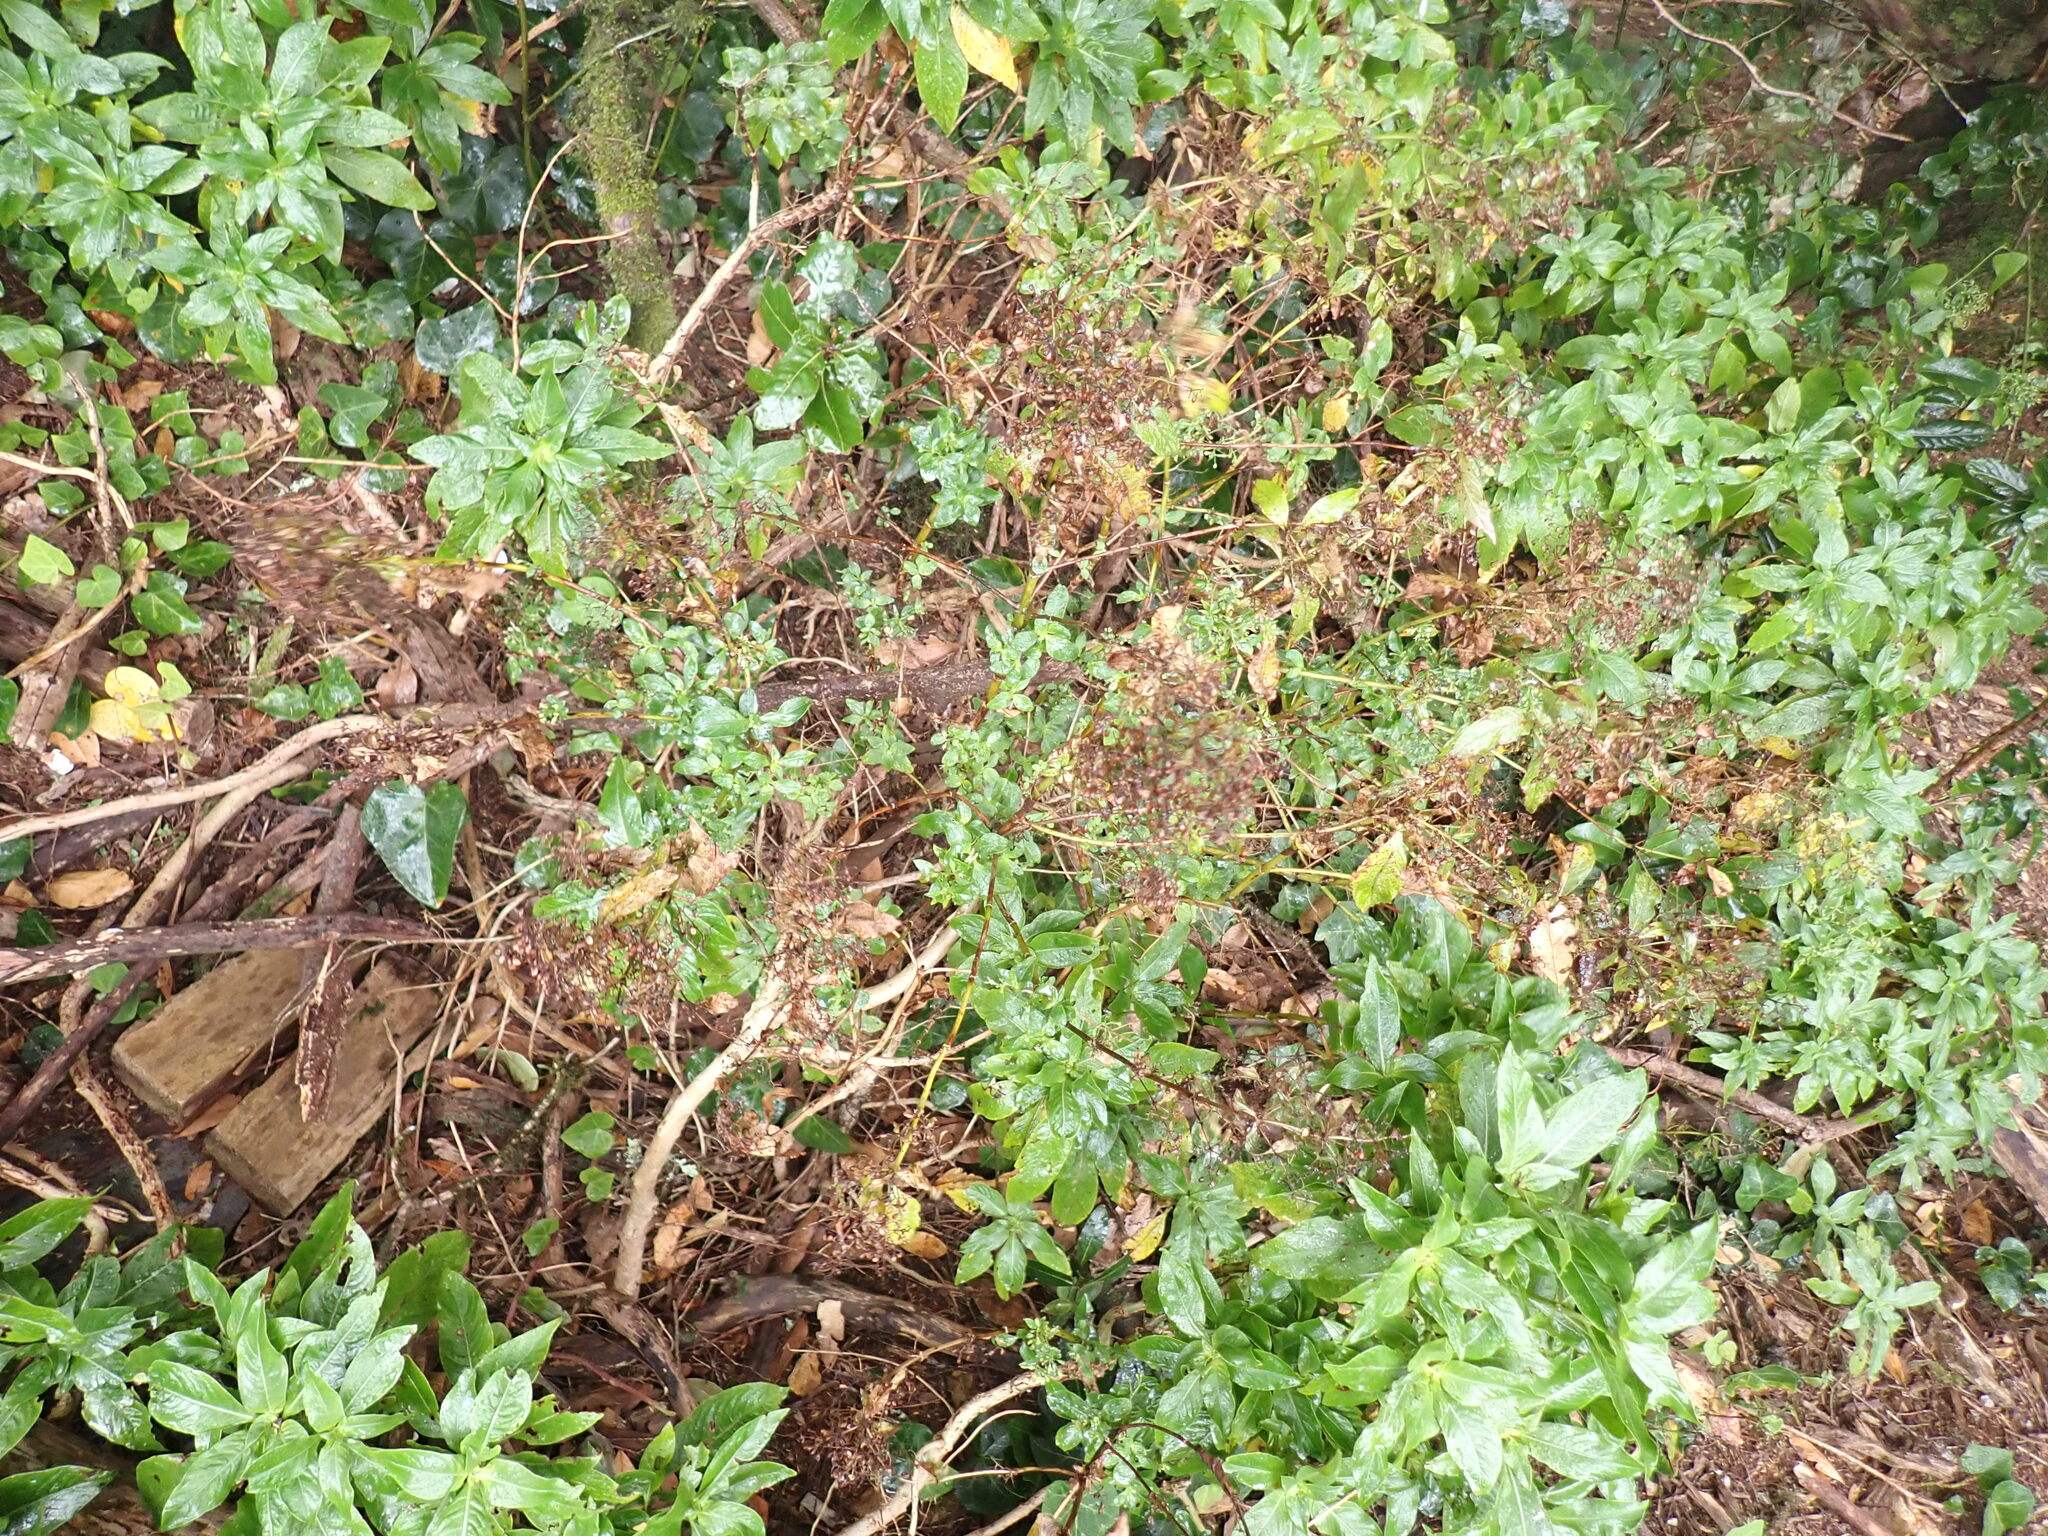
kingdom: Plantae
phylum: Tracheophyta
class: Magnoliopsida
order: Gentianales
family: Rubiaceae
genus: Phyllis
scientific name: Phyllis nobla
